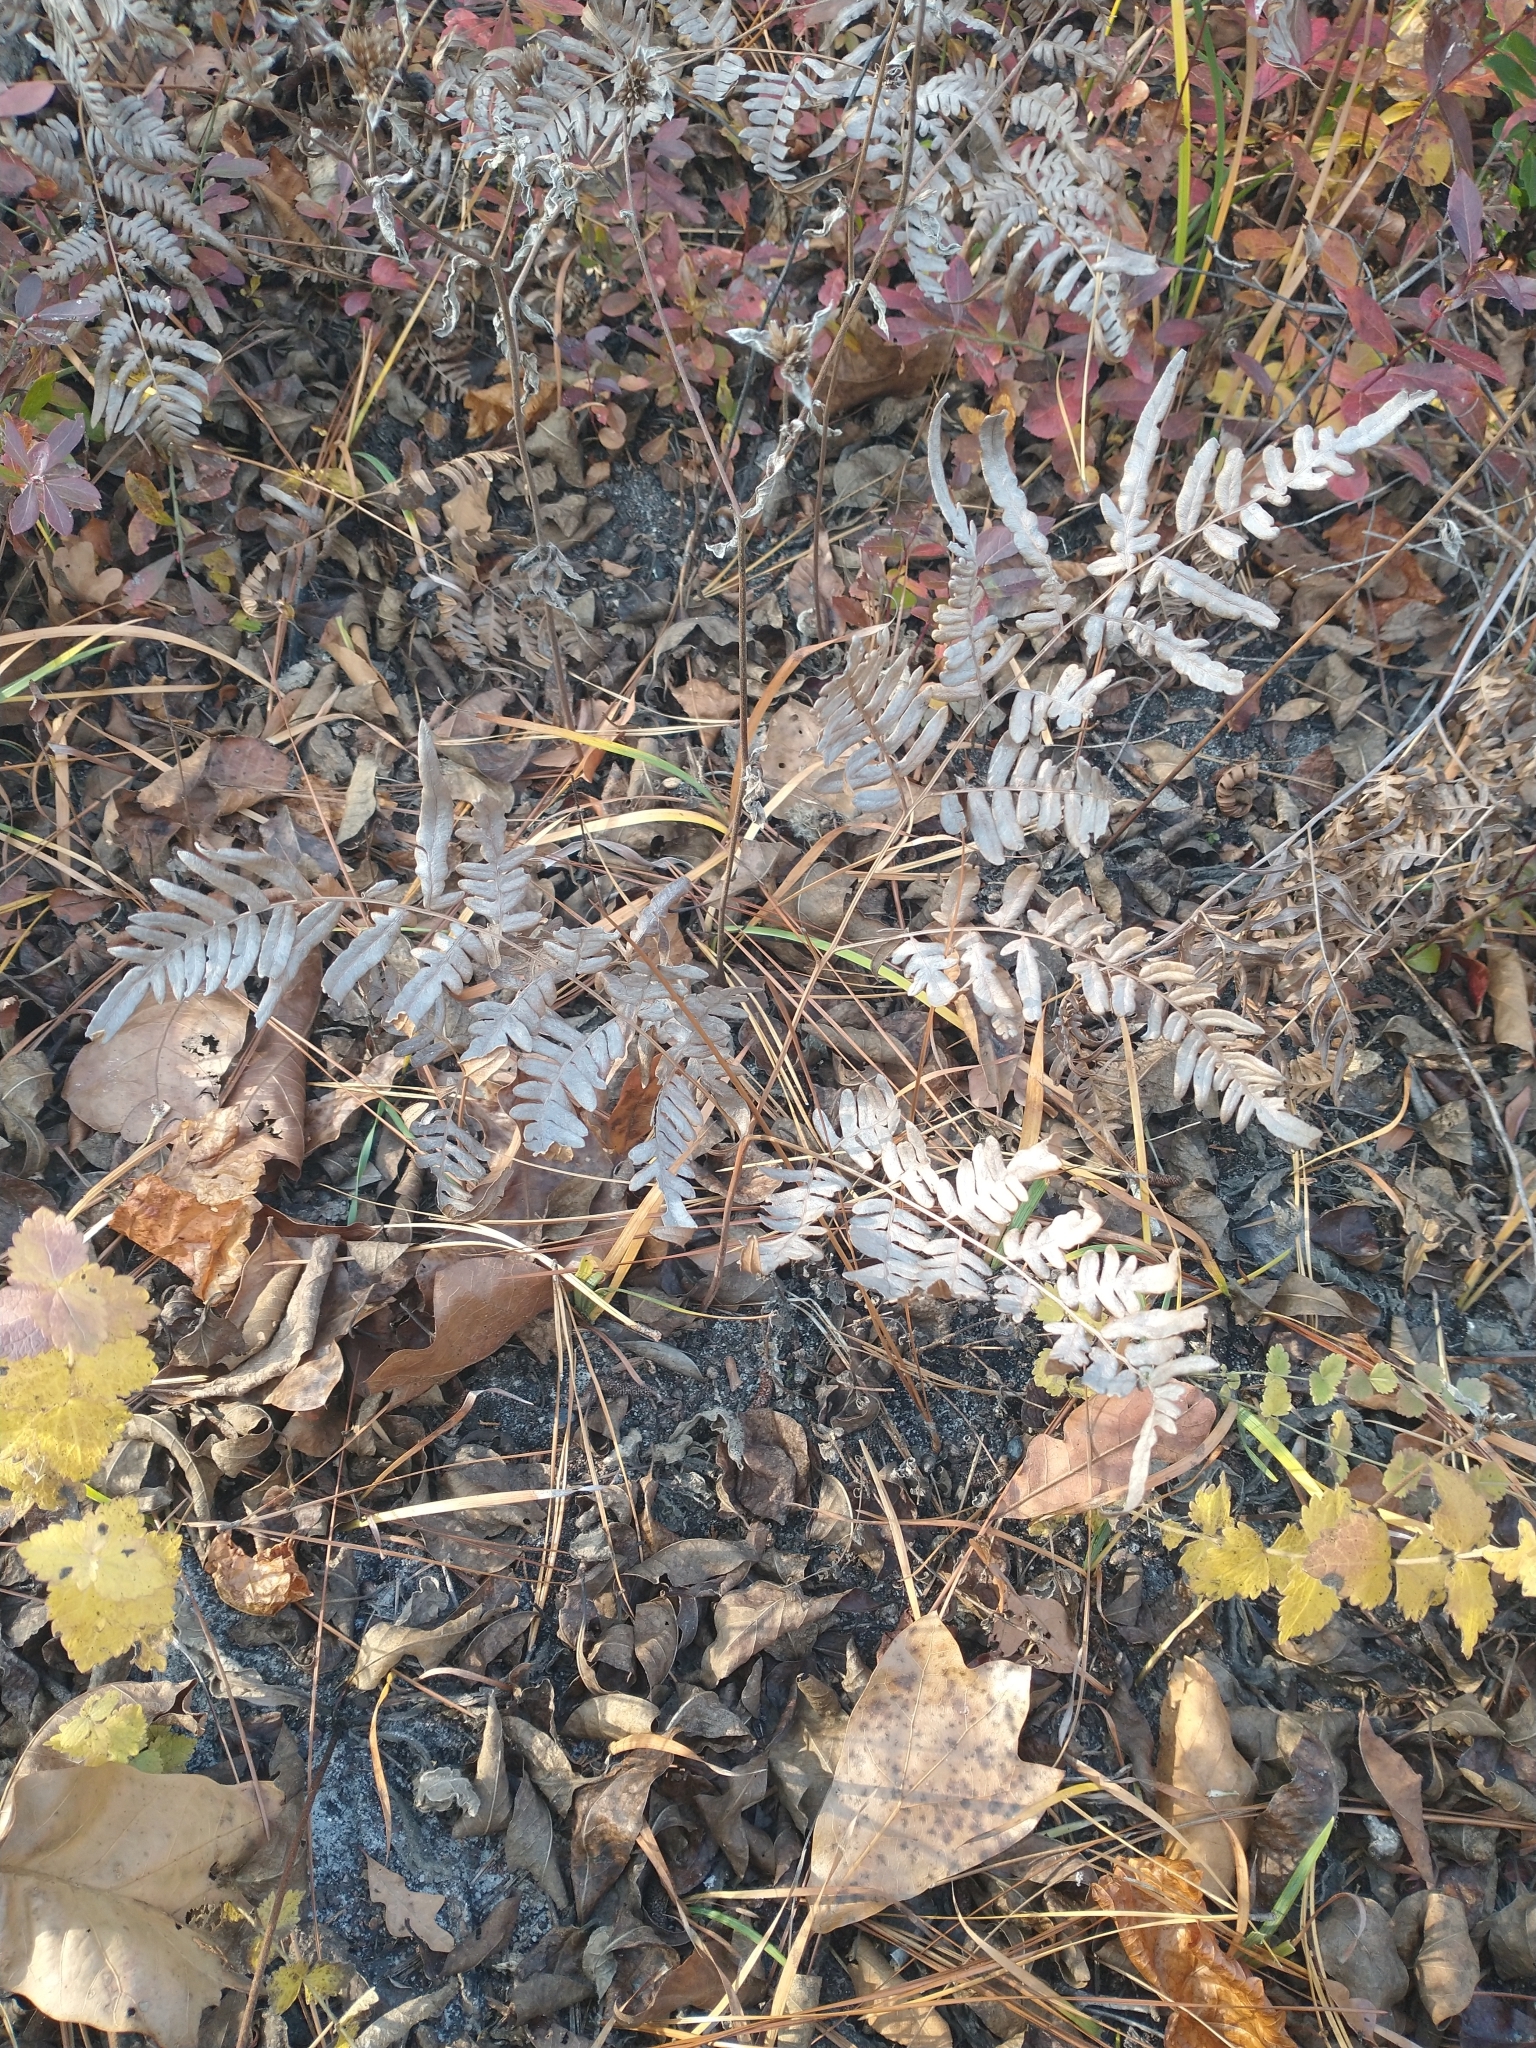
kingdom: Plantae
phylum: Tracheophyta
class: Polypodiopsida
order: Polypodiales
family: Dennstaedtiaceae
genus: Pteridium
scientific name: Pteridium aquilinum
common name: Bracken
